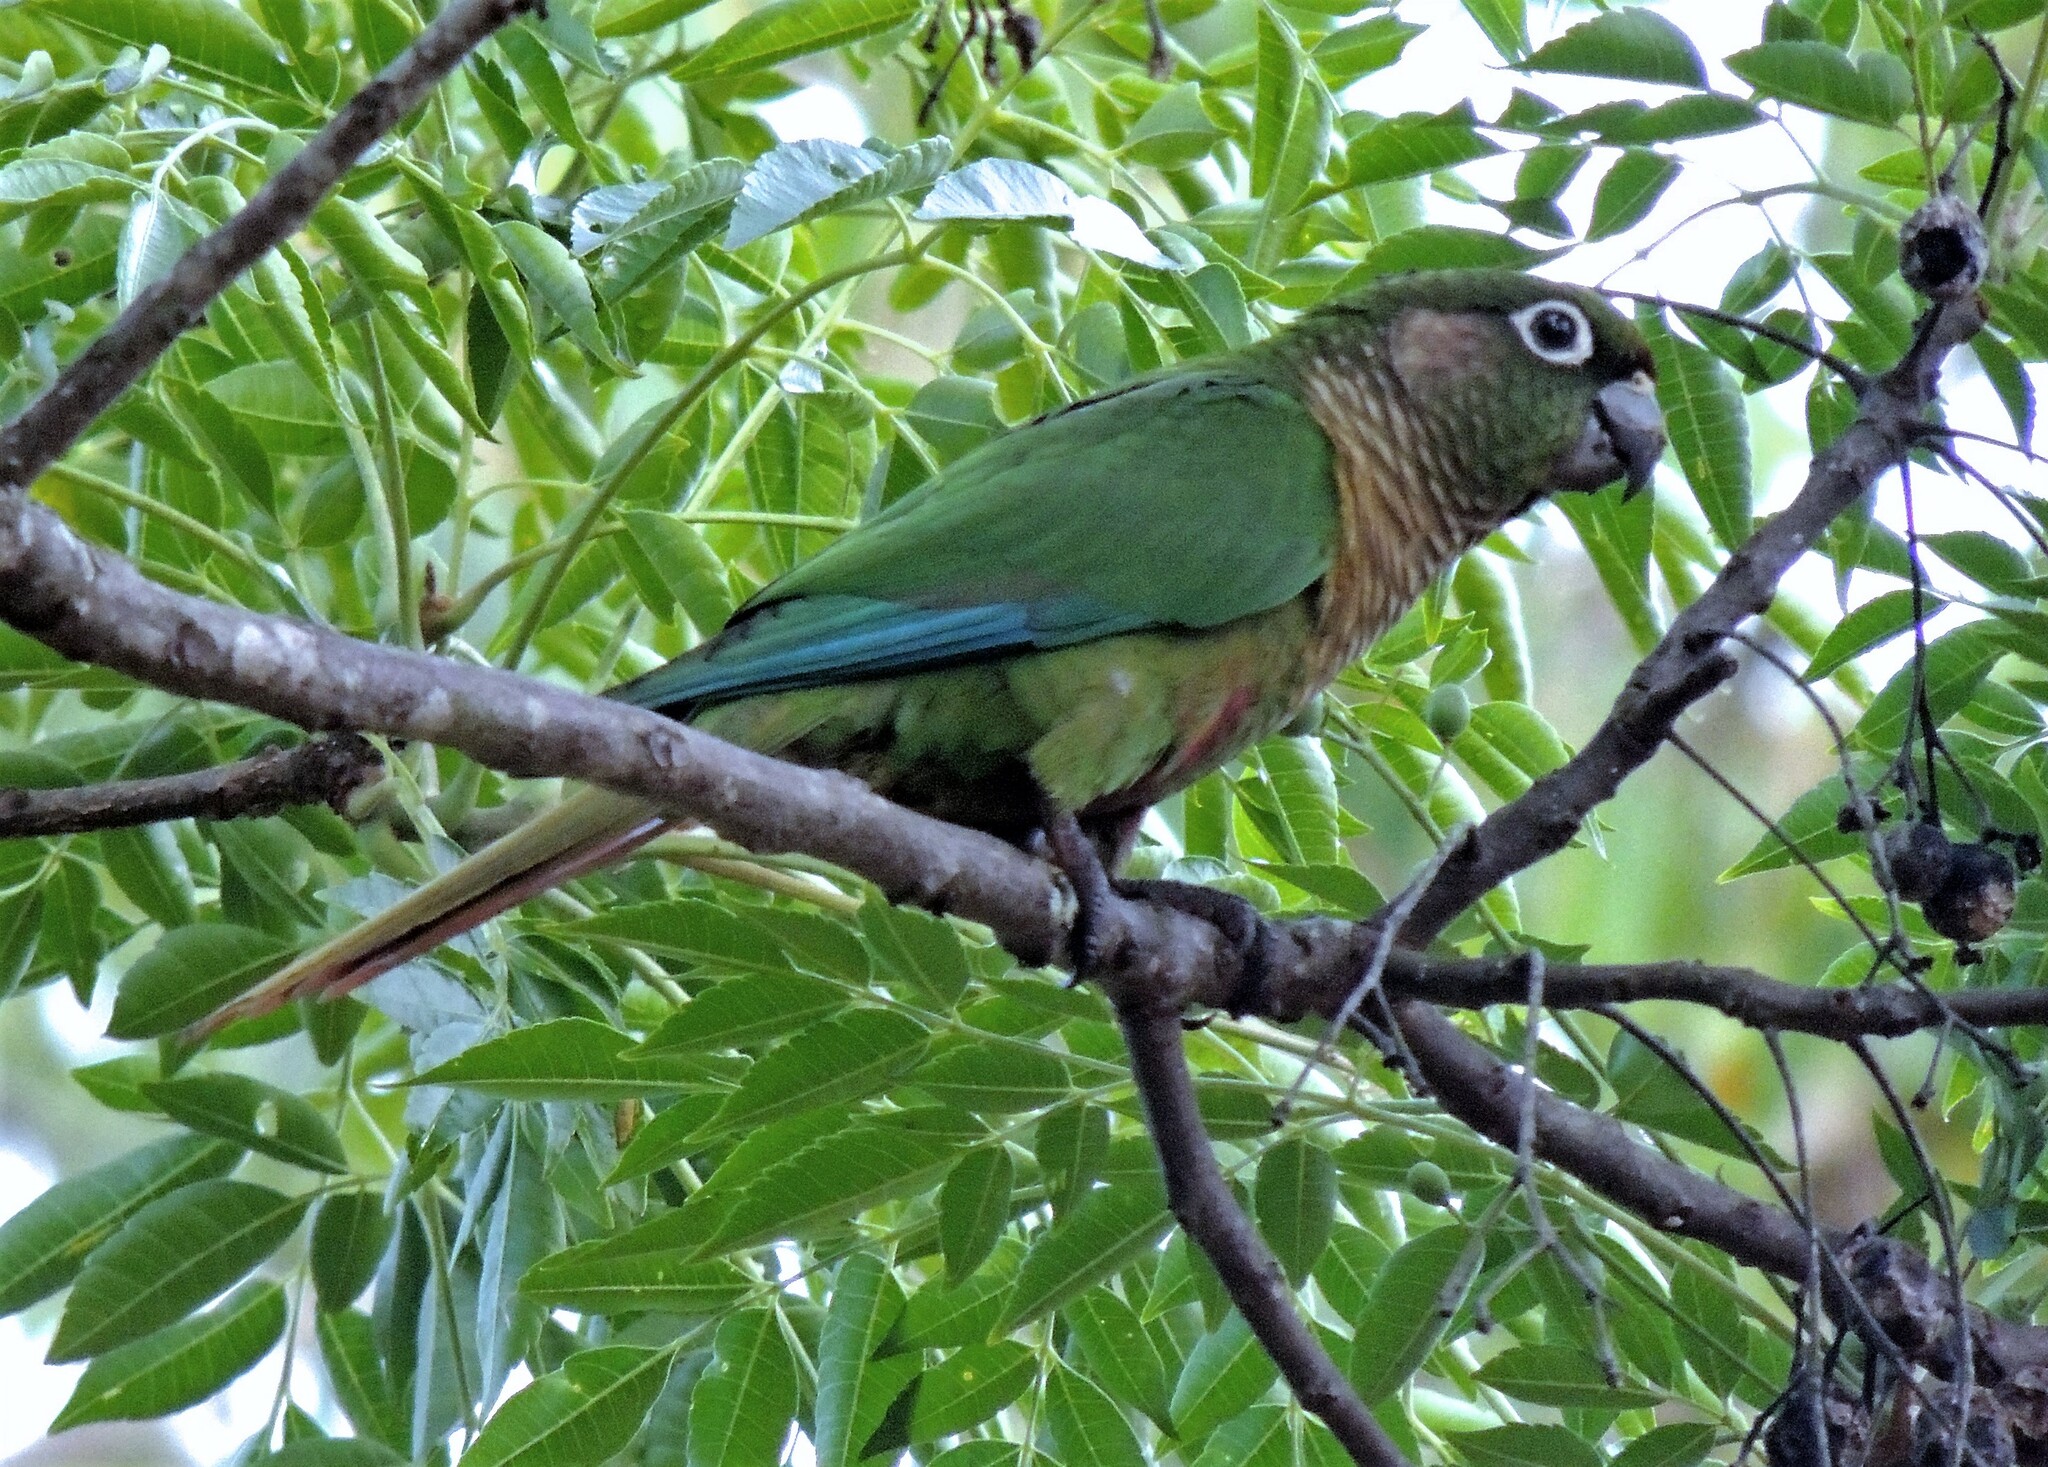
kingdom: Animalia
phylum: Chordata
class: Aves
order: Psittaciformes
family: Psittacidae
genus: Pyrrhura
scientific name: Pyrrhura frontalis
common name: Maroon-bellied parakeet
